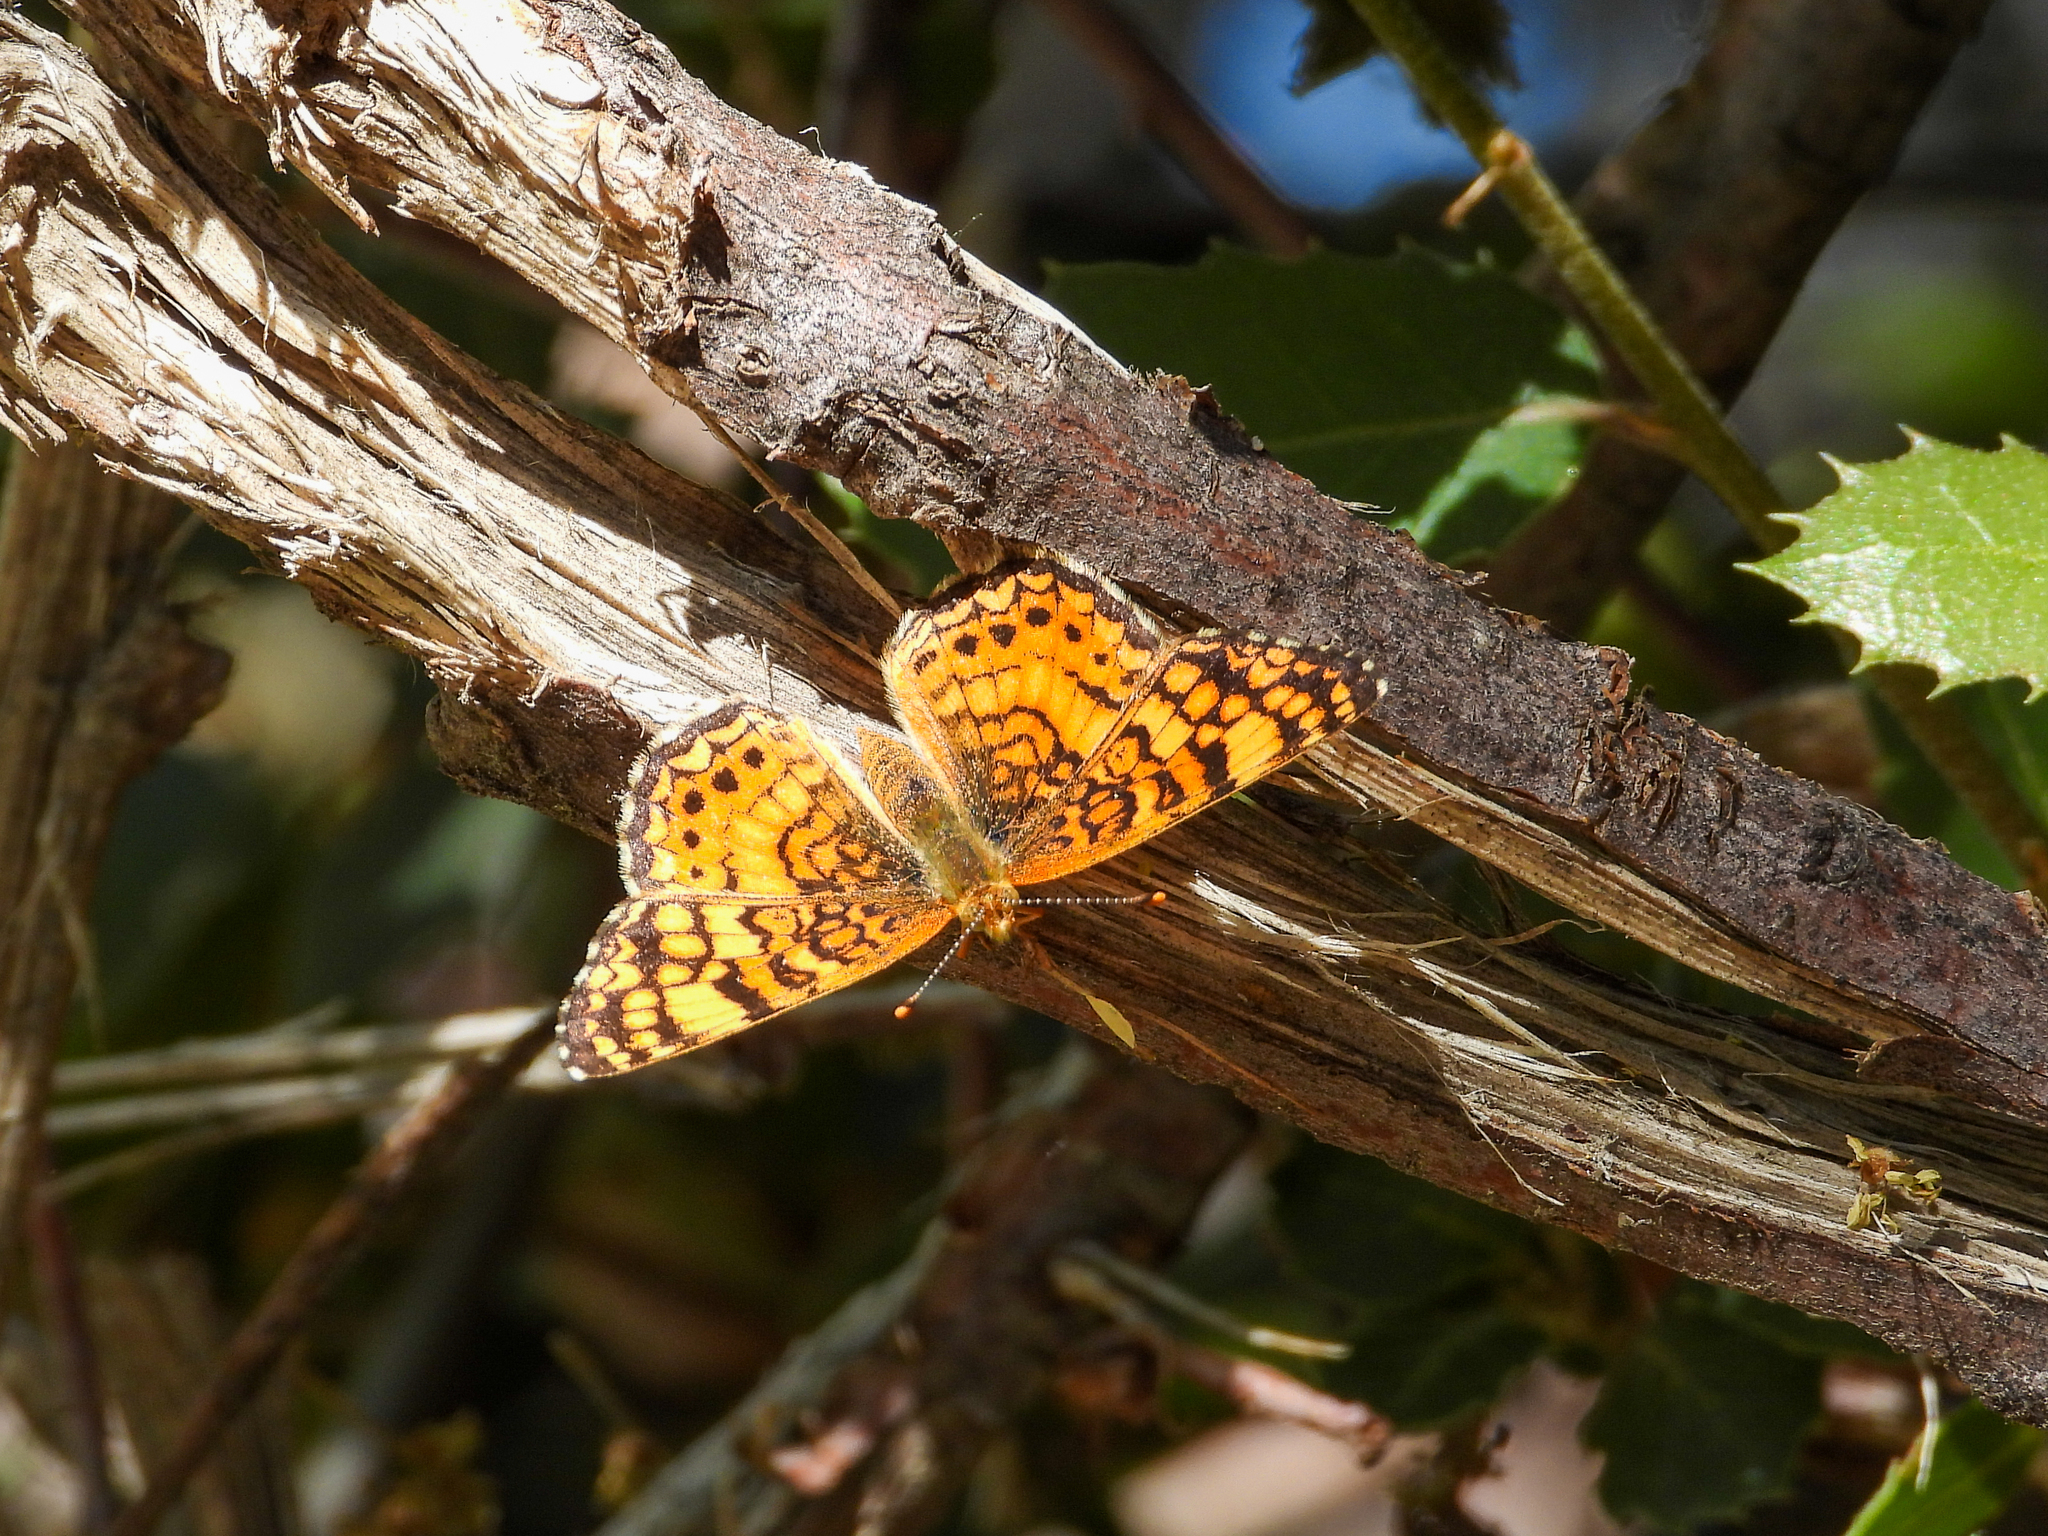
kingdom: Animalia
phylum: Arthropoda
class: Insecta
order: Lepidoptera
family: Nymphalidae
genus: Eresia
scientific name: Eresia aveyrona
